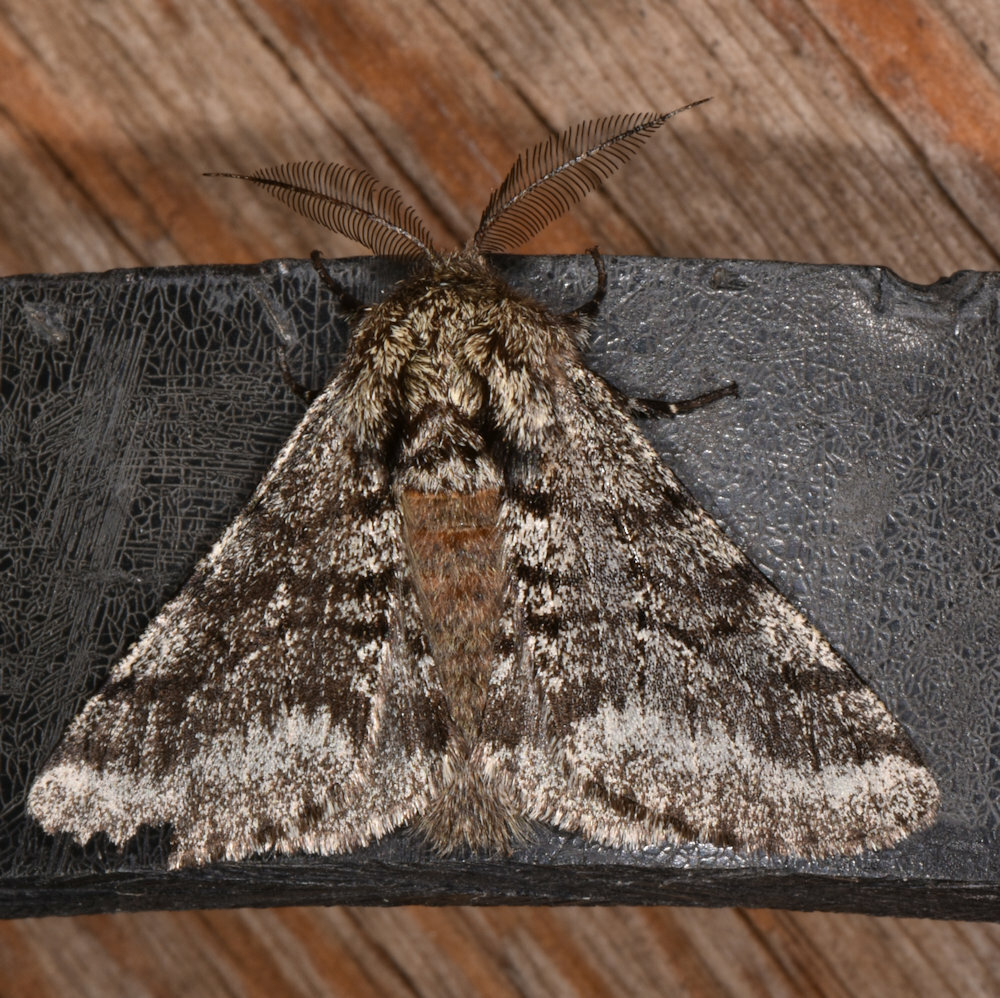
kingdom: Animalia
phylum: Arthropoda
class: Insecta
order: Lepidoptera
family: Geometridae
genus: Lycia
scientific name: Lycia ursaria
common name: Stout spanworm
